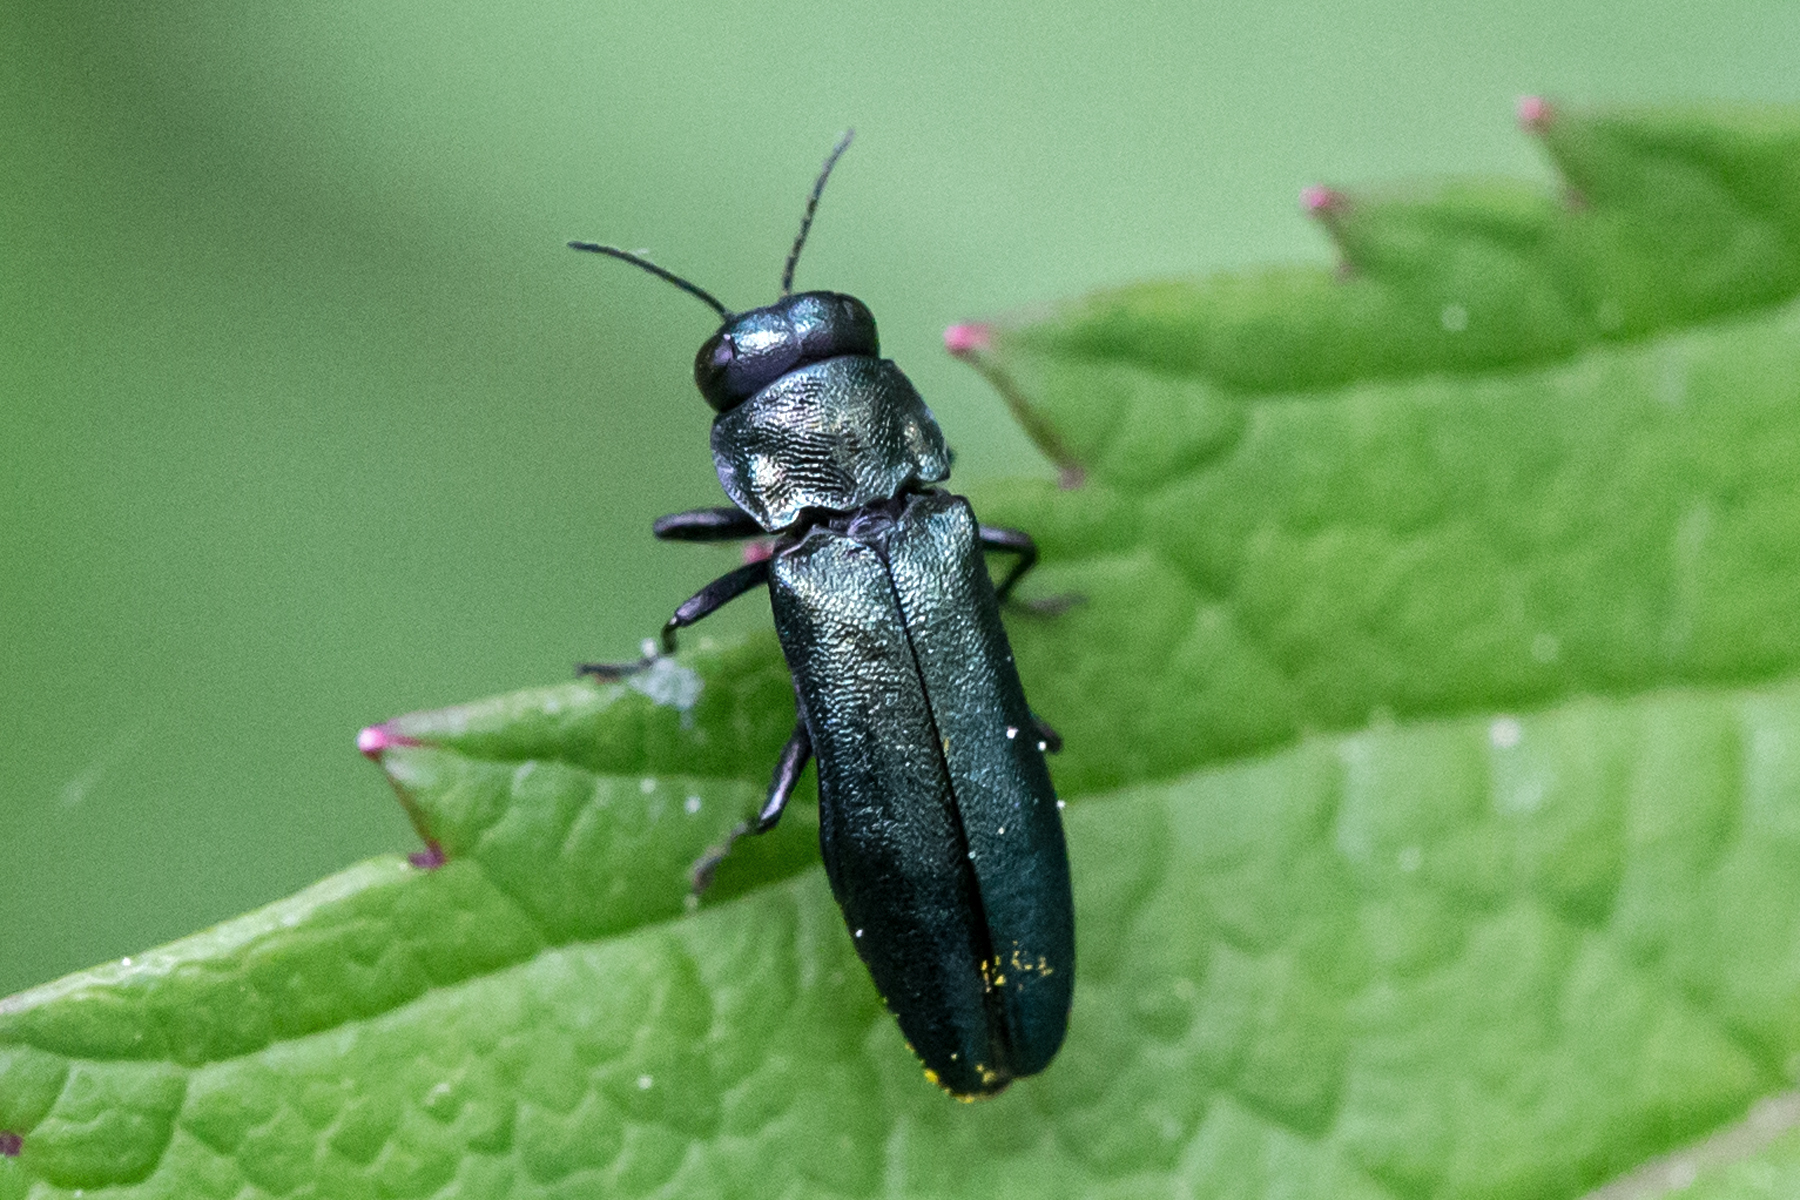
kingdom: Animalia
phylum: Arthropoda
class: Insecta
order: Coleoptera
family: Buprestidae
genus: Agrilus
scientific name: Agrilus cyanescens
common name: Bluish borer beetle
